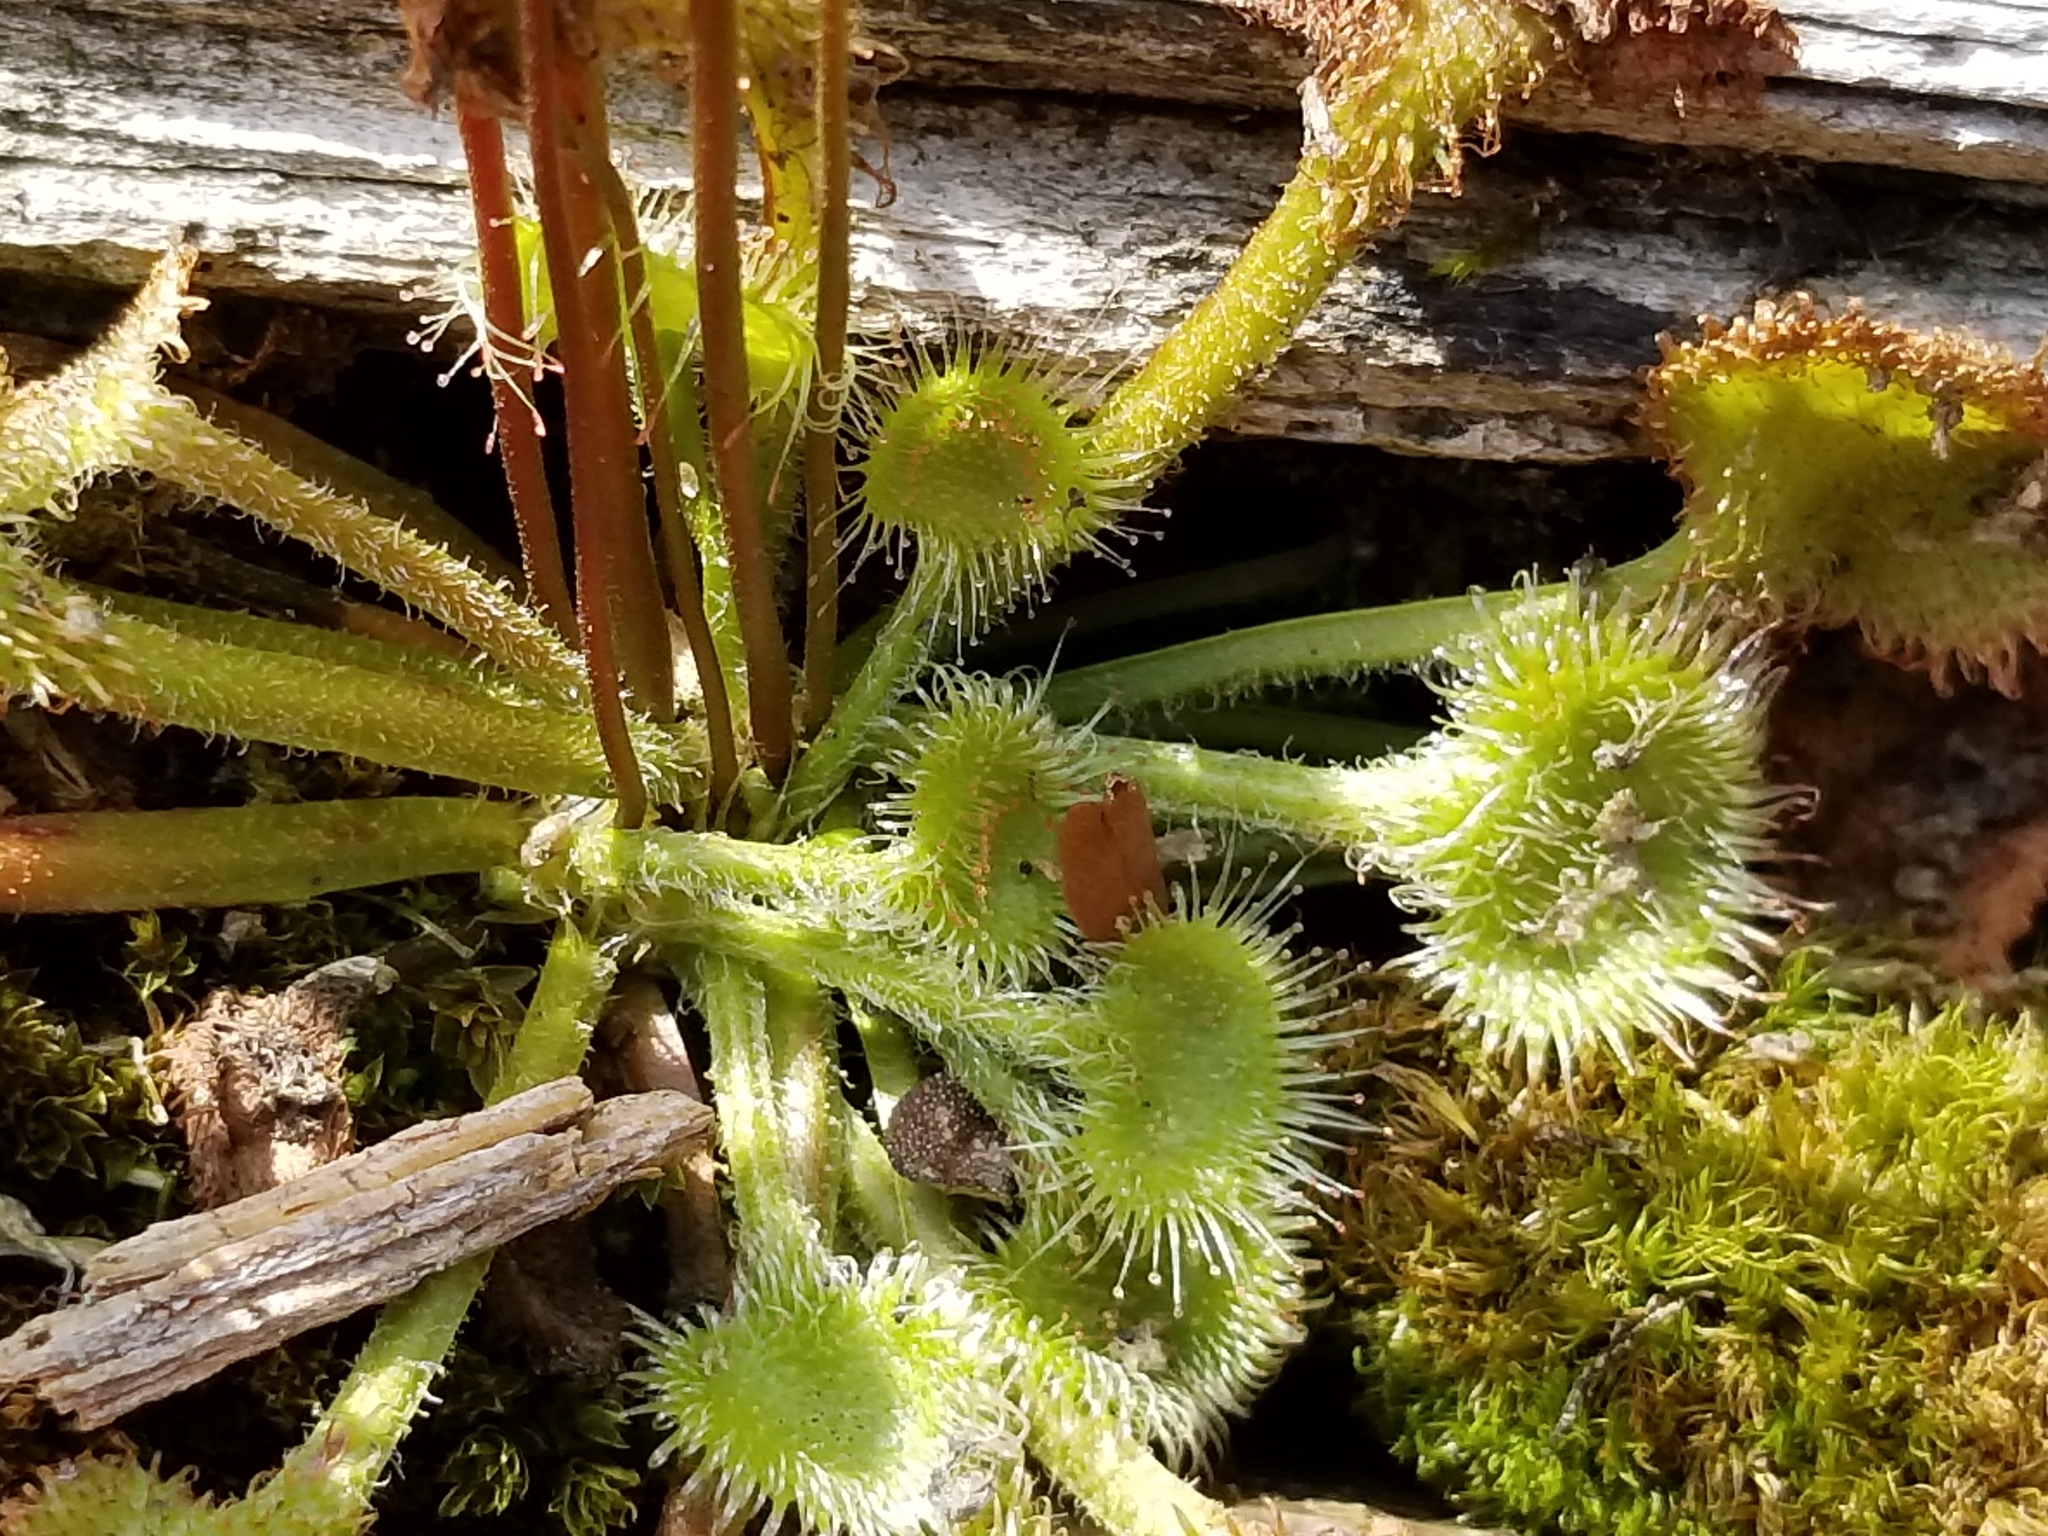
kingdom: Plantae
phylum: Tracheophyta
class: Magnoliopsida
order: Caryophyllales
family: Droseraceae
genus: Drosera
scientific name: Drosera rotundifolia
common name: Round-leaved sundew
